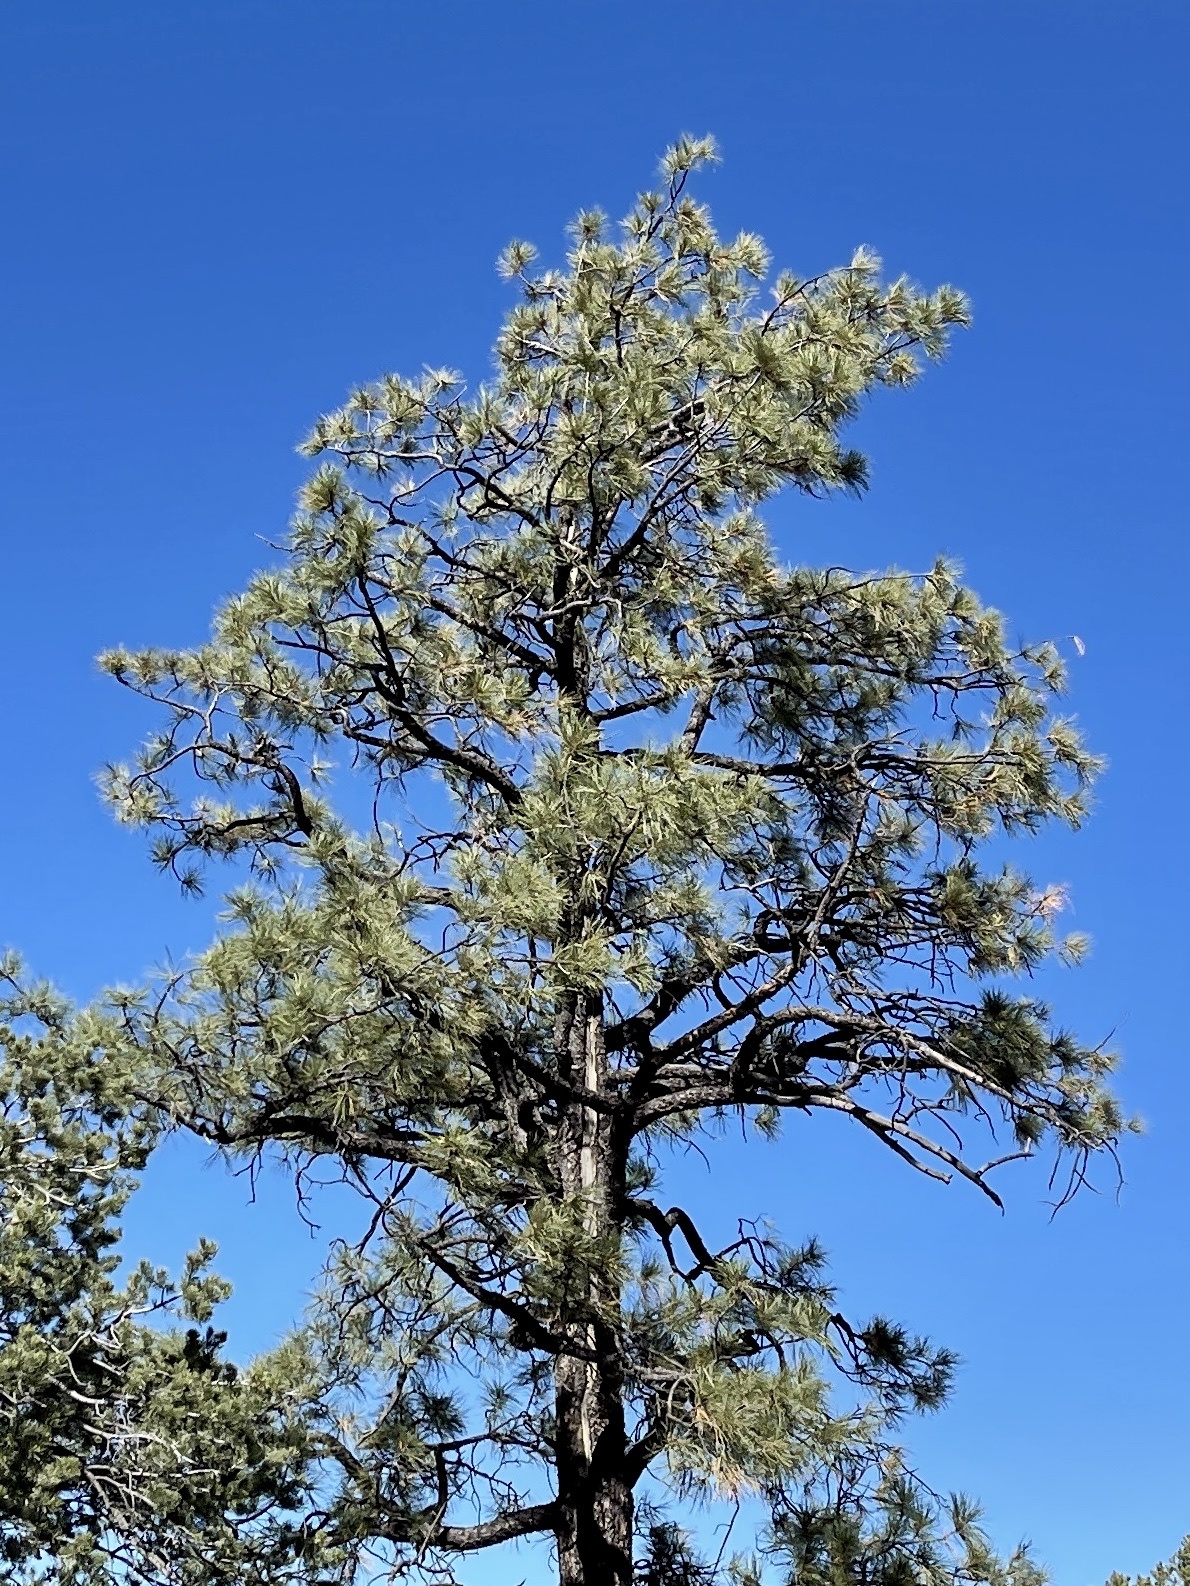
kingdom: Plantae
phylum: Tracheophyta
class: Pinopsida
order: Pinales
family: Pinaceae
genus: Pinus
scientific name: Pinus ponderosa
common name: Western yellow-pine
